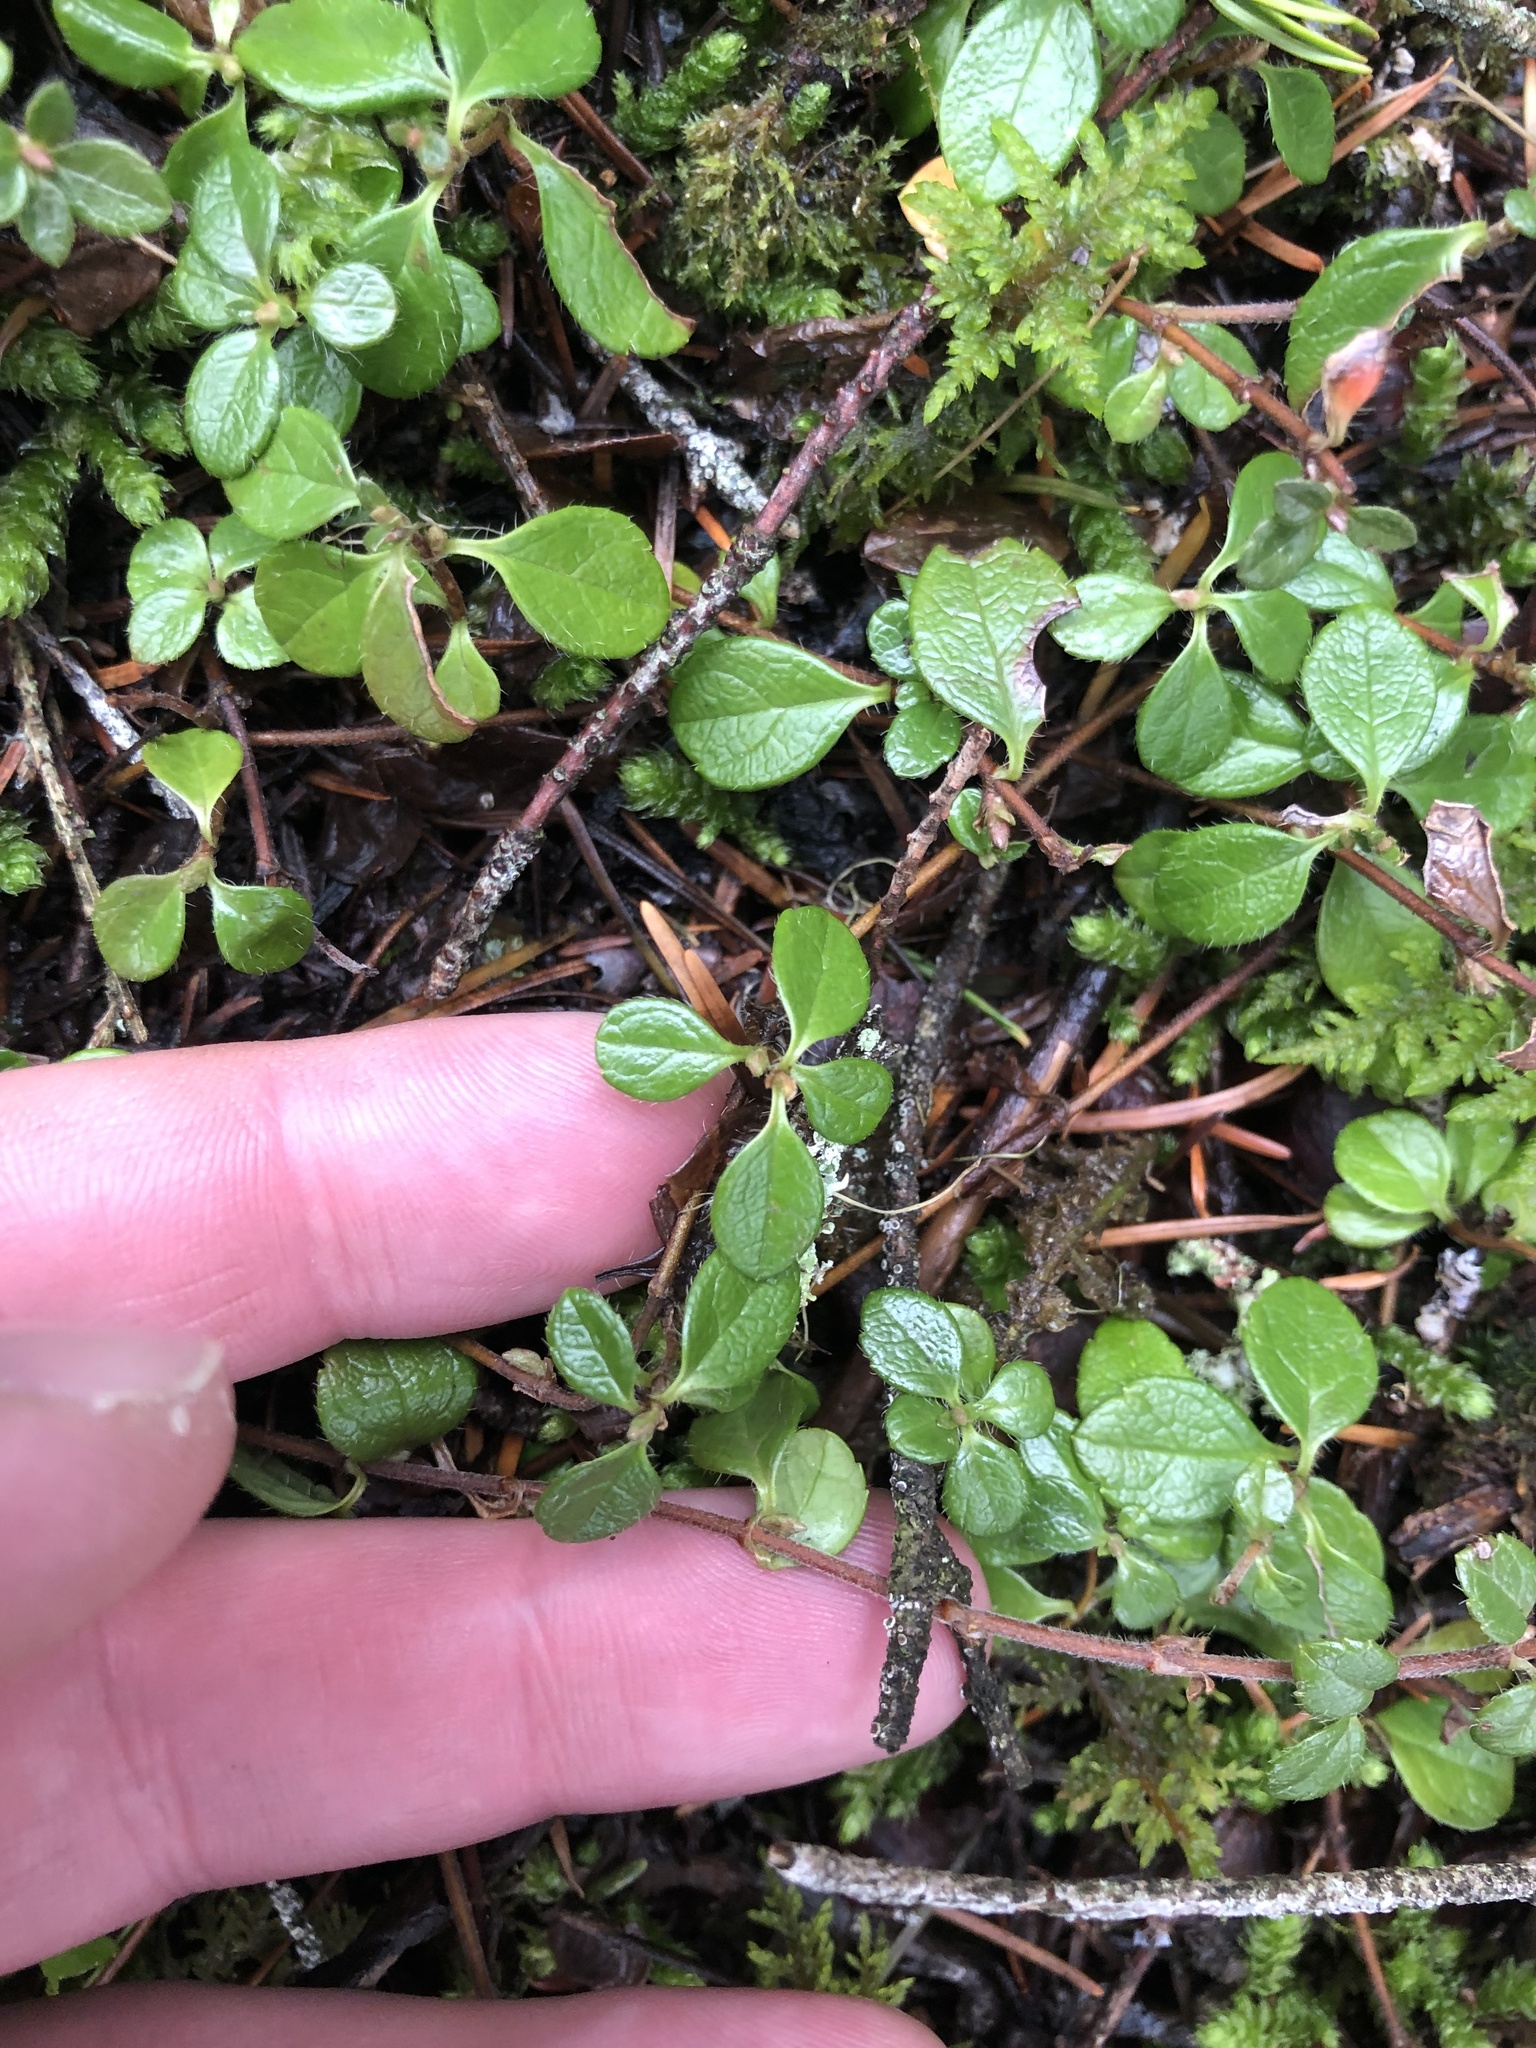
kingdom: Plantae
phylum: Tracheophyta
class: Magnoliopsida
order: Dipsacales
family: Caprifoliaceae
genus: Linnaea
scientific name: Linnaea borealis
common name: Twinflower
